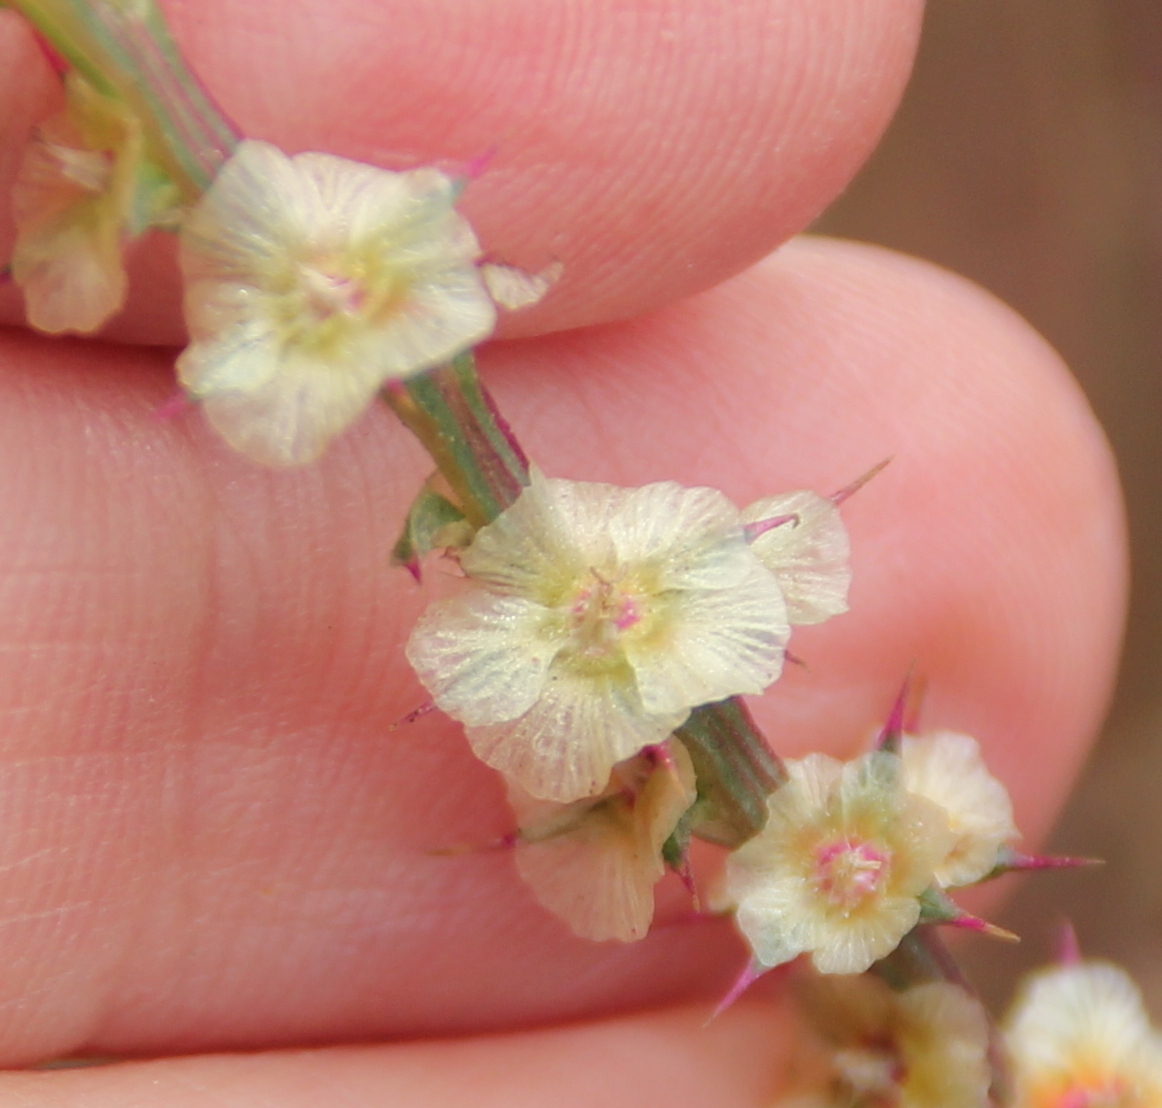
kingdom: Plantae
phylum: Tracheophyta
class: Magnoliopsida
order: Caryophyllales
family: Amaranthaceae
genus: Salsola
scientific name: Salsola australis
